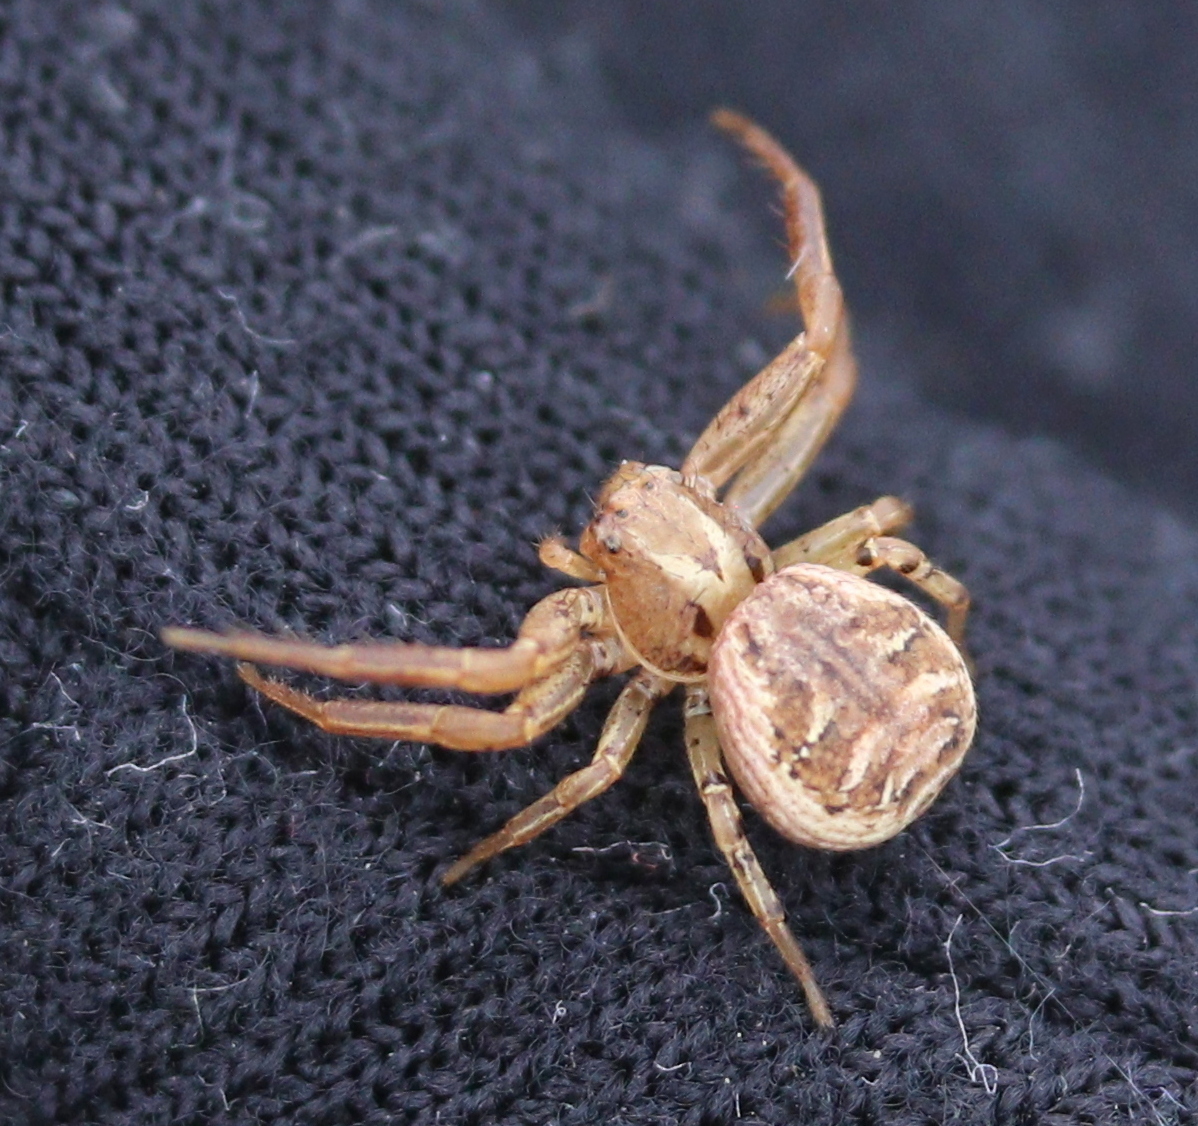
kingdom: Animalia
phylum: Arthropoda
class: Arachnida
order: Araneae
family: Thomisidae
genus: Xysticus
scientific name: Xysticus cristatus
